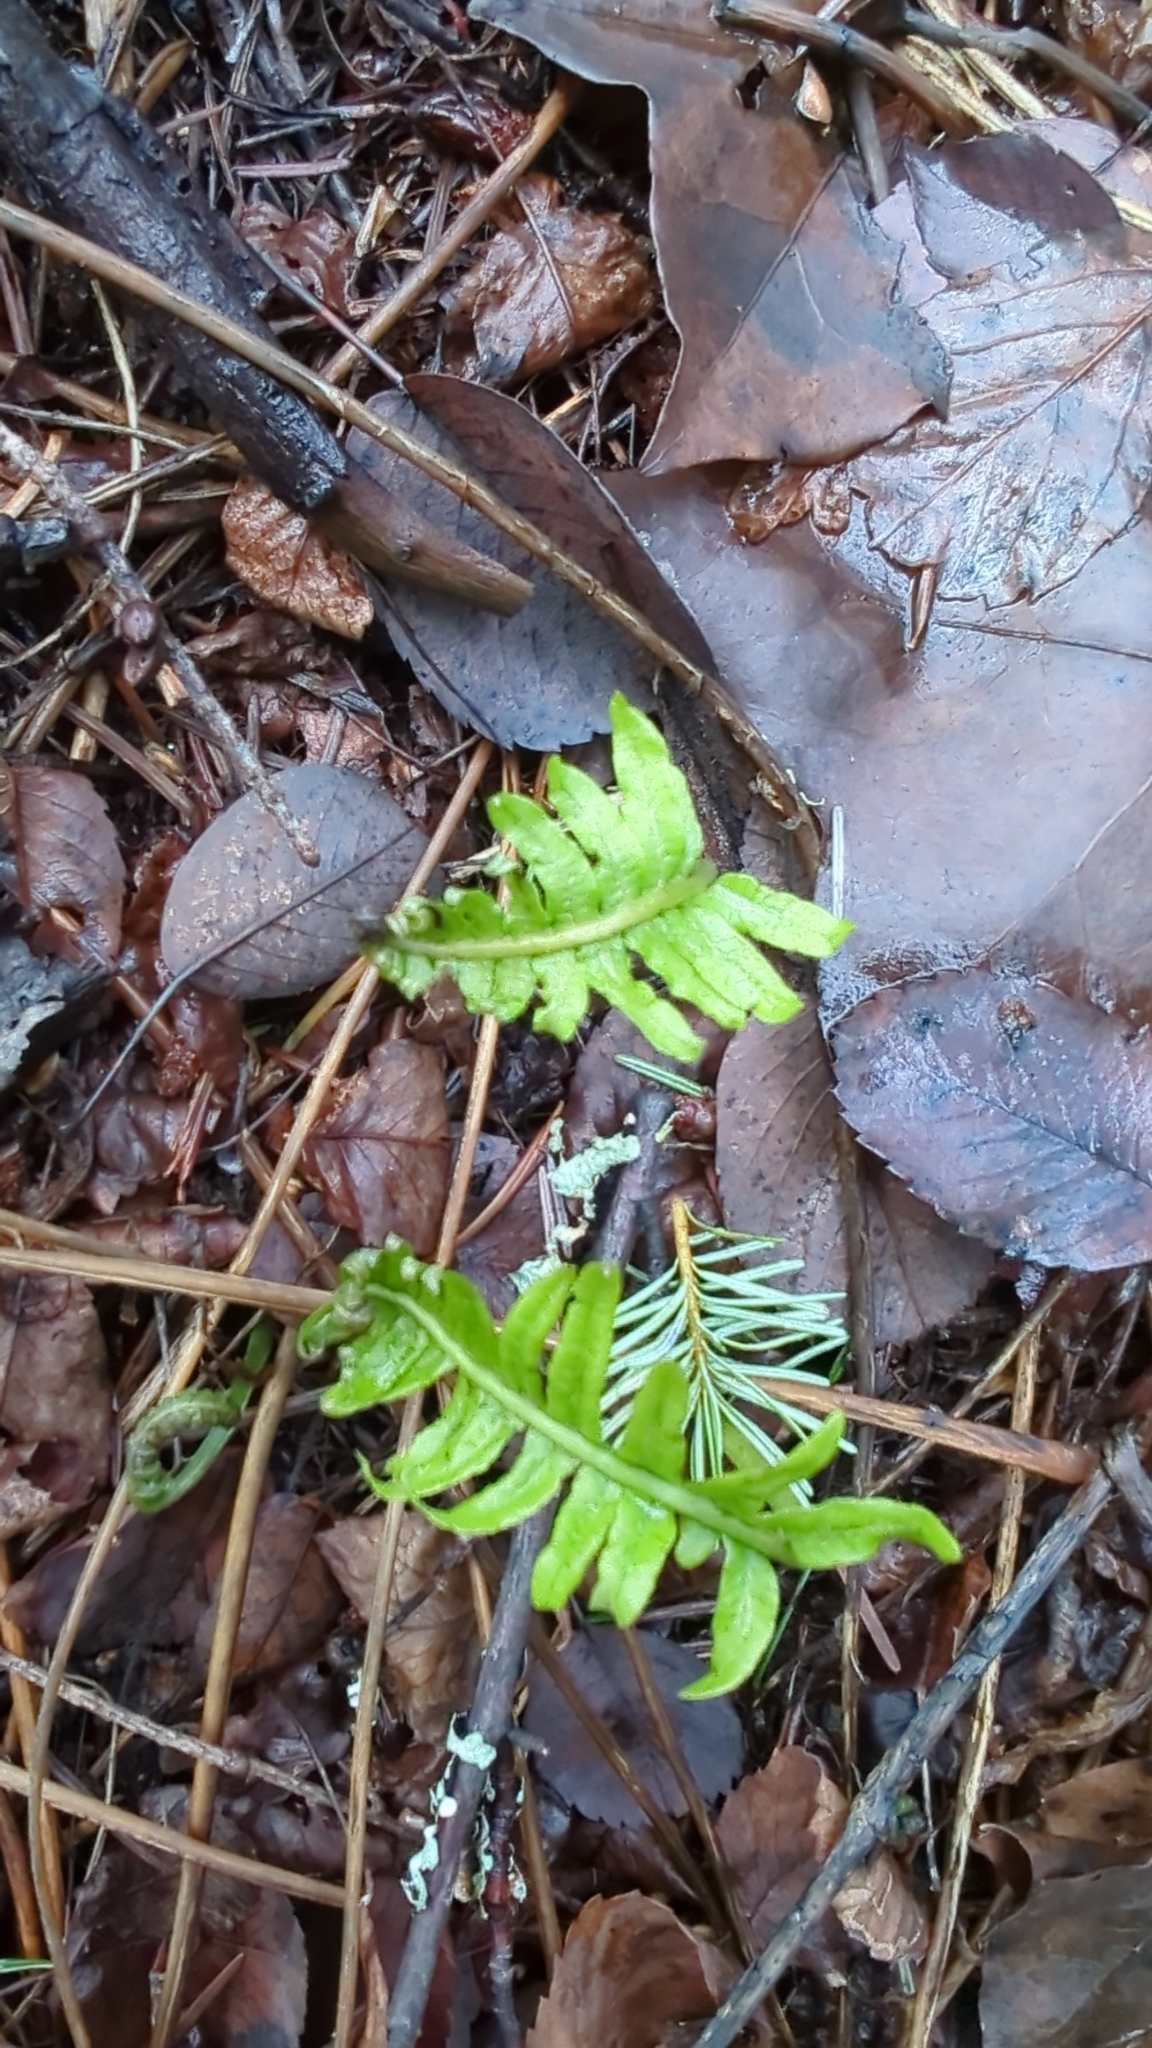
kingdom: Plantae
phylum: Tracheophyta
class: Polypodiopsida
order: Polypodiales
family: Polypodiaceae
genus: Polypodium
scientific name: Polypodium glycyrrhiza
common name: Licorice fern
